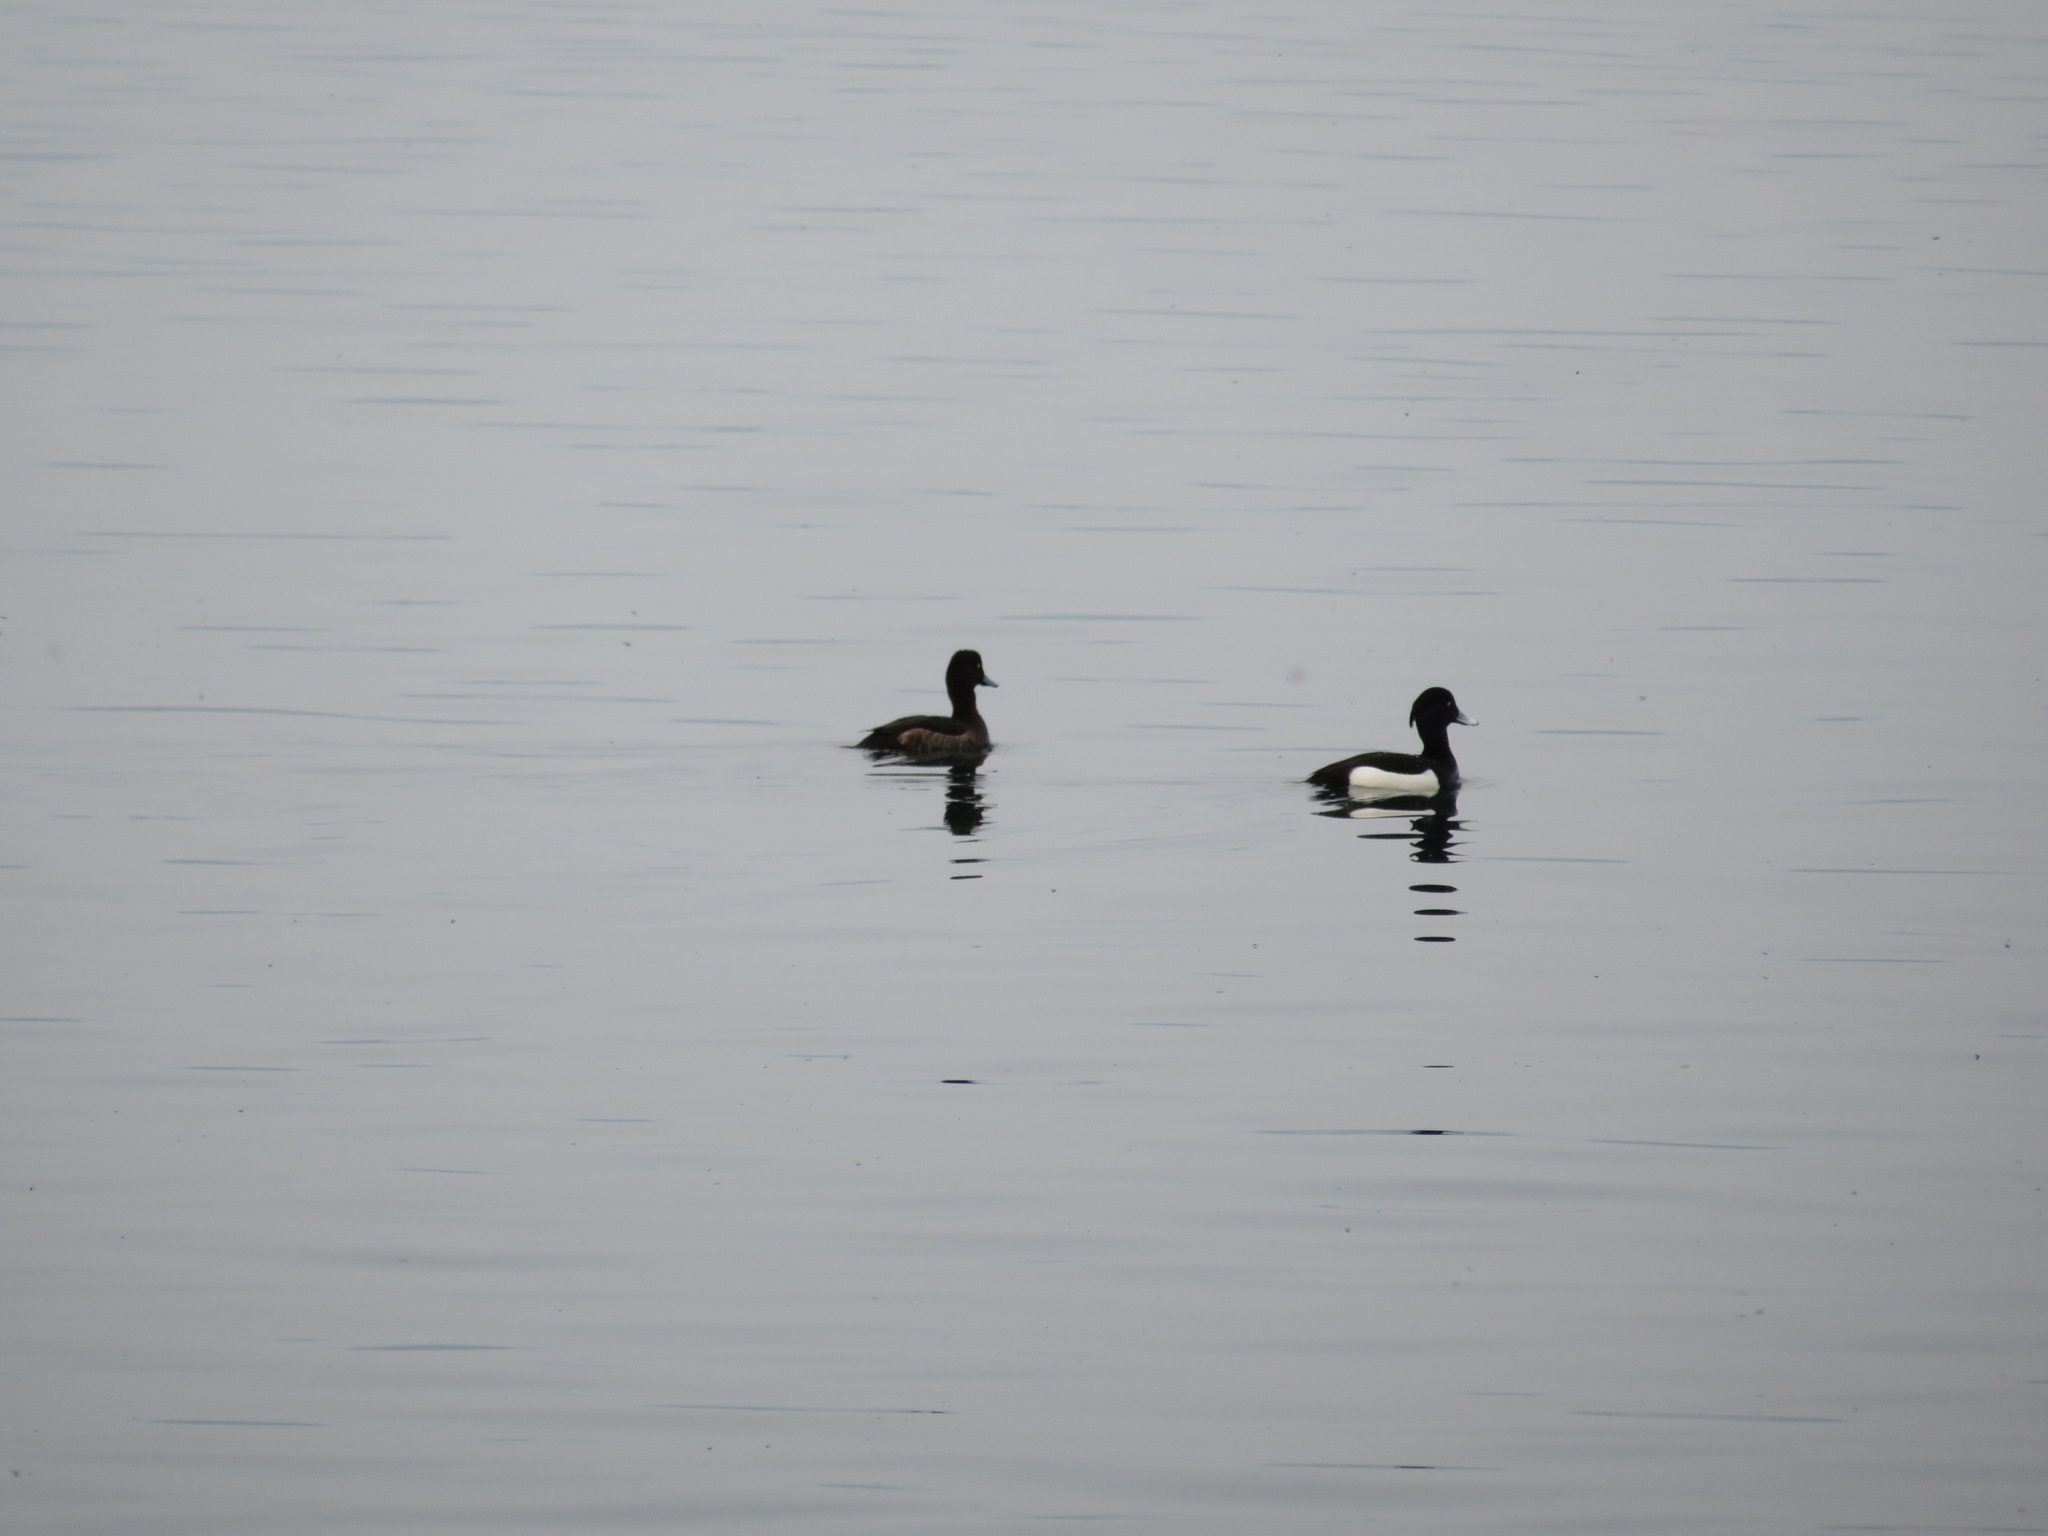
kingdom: Animalia
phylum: Chordata
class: Aves
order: Anseriformes
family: Anatidae
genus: Aythya
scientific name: Aythya fuligula
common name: Tufted duck
